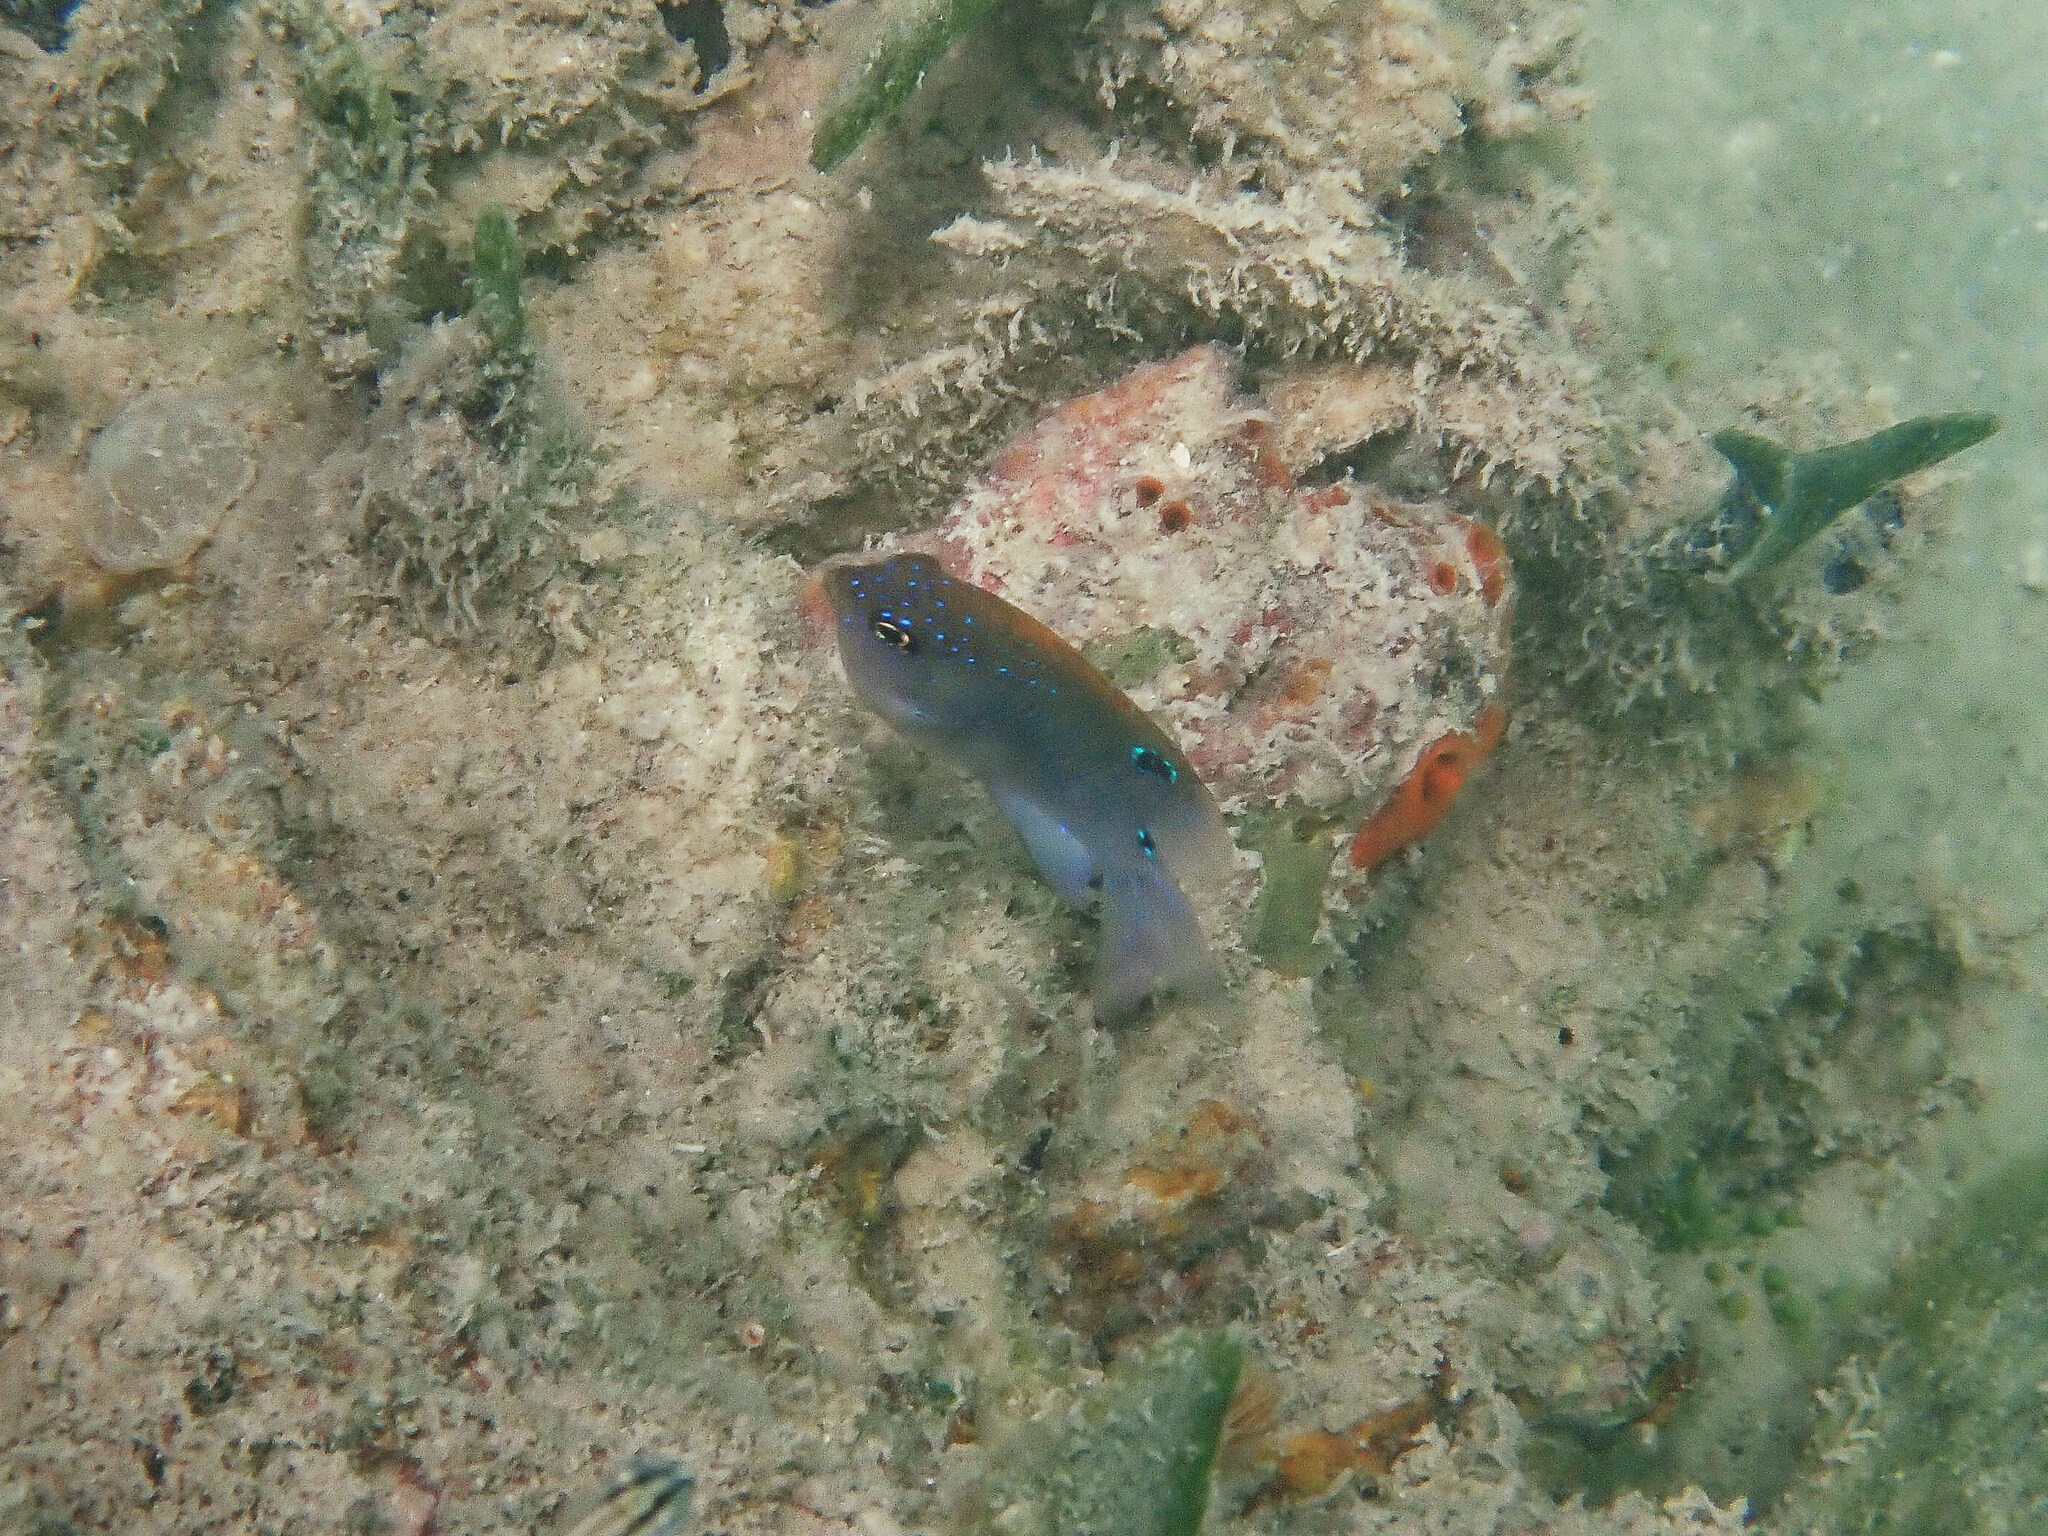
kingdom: Animalia
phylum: Chordata
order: Perciformes
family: Pomacentridae
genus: Stegastes
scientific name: Stegastes adustus
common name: Dusky damselfish
